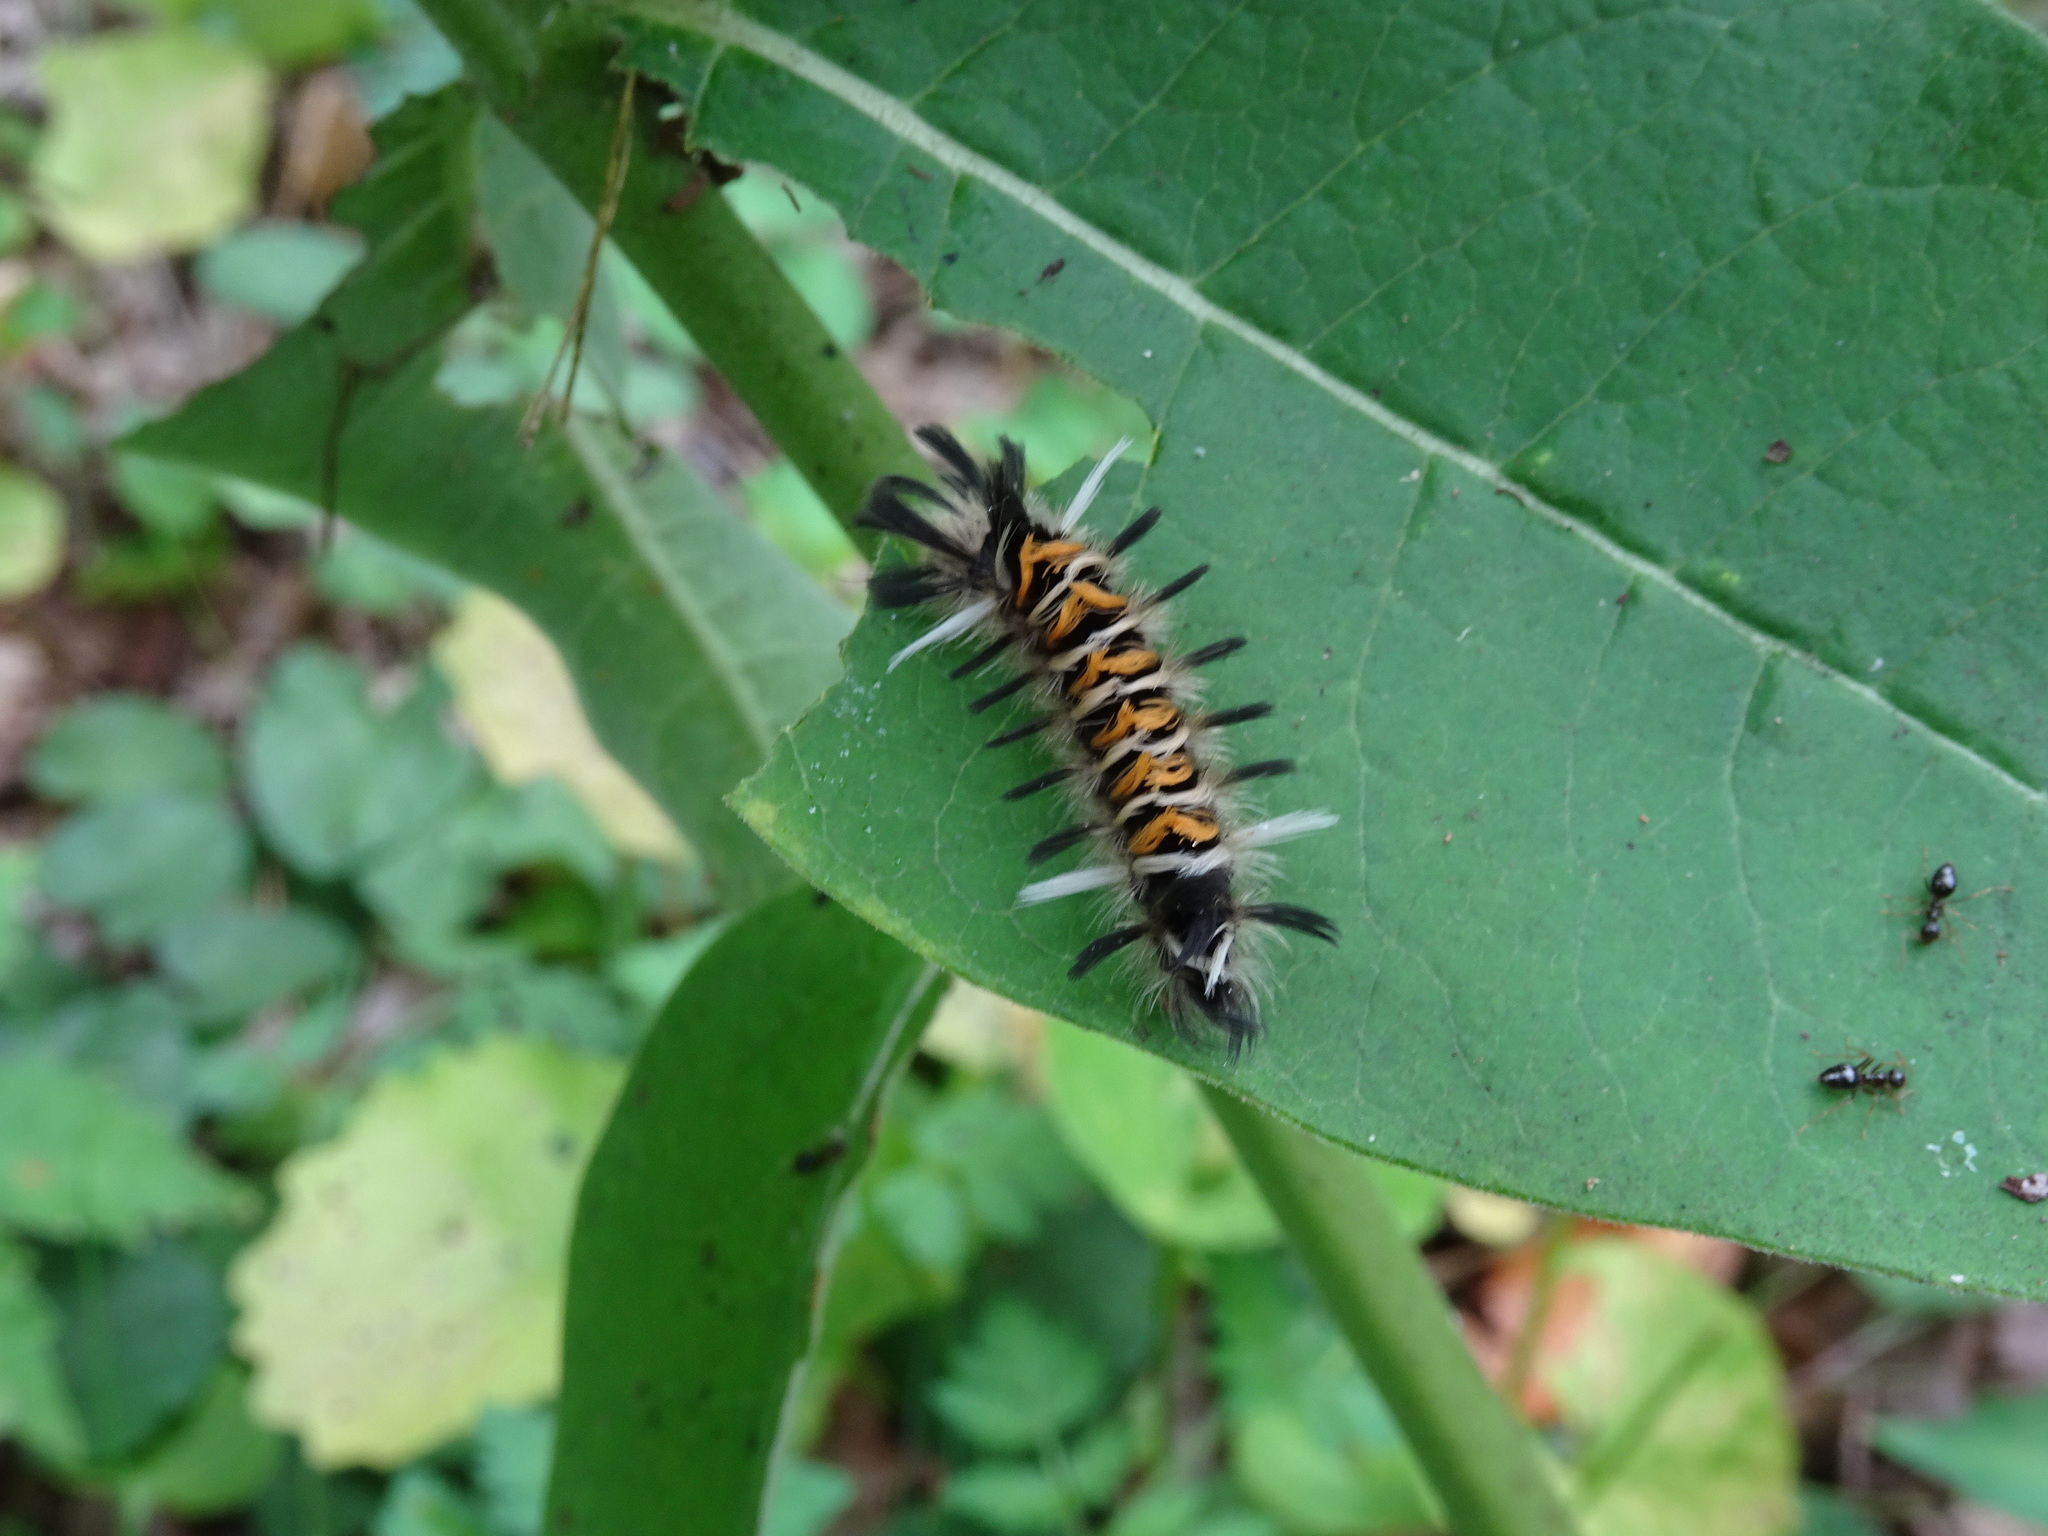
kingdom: Animalia
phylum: Arthropoda
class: Insecta
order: Lepidoptera
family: Erebidae
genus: Euchaetes
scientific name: Euchaetes egle
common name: Milkweed tussock moth
